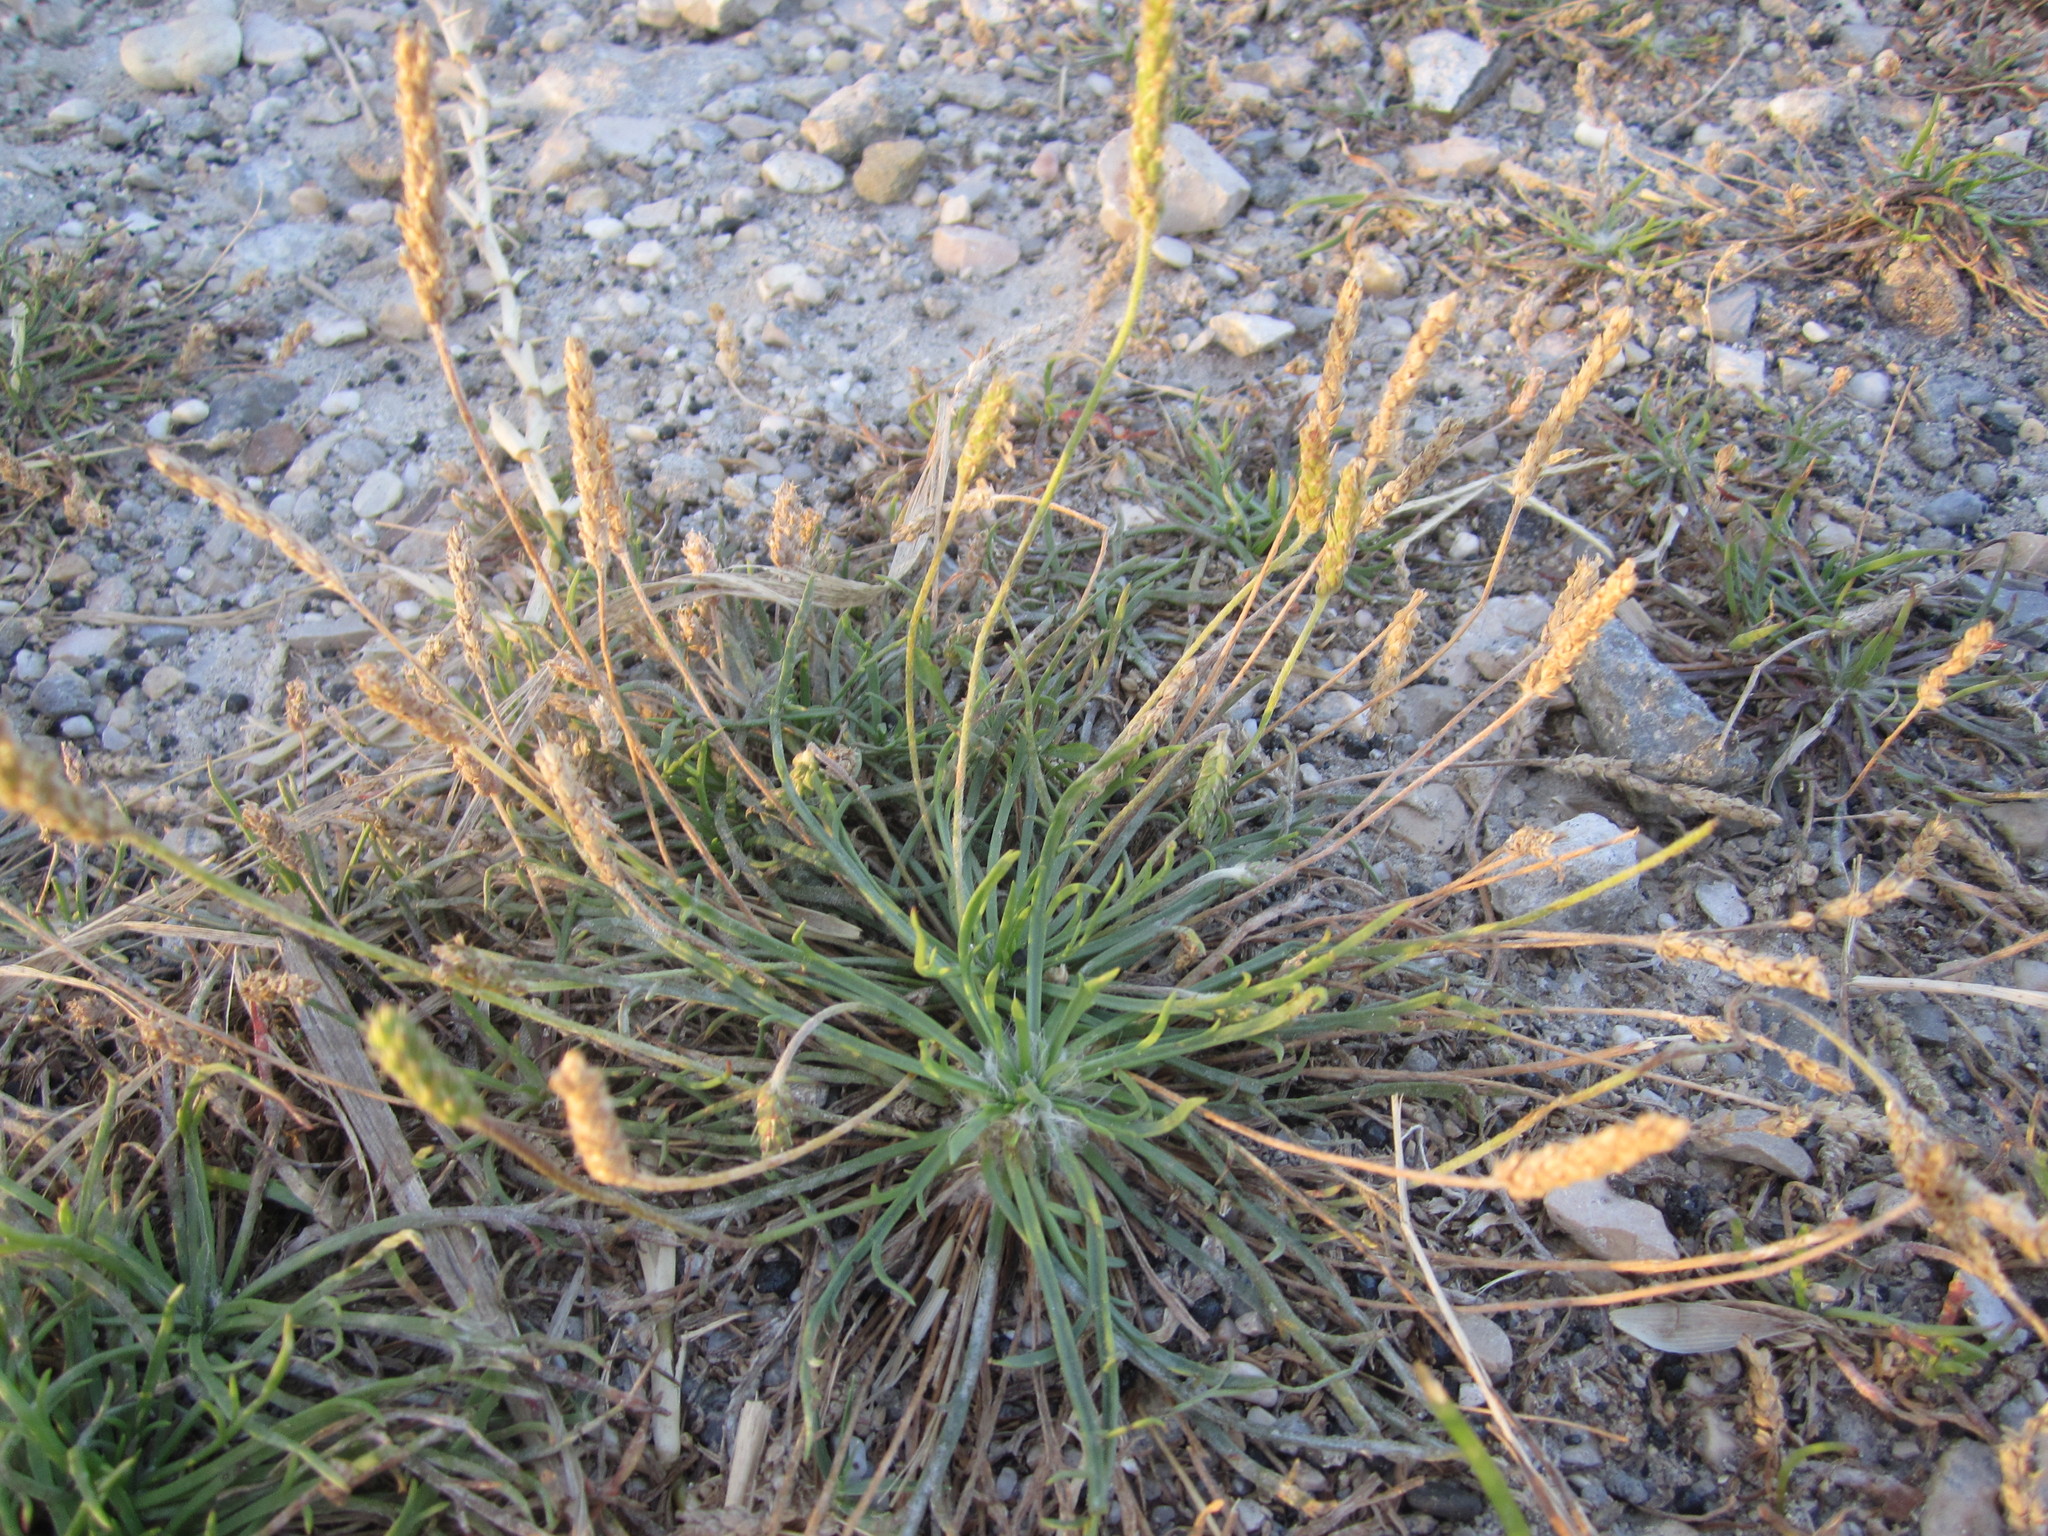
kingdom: Plantae
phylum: Tracheophyta
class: Magnoliopsida
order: Lamiales
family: Plantaginaceae
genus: Plantago
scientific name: Plantago coronopus
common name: Buck's-horn plantain
